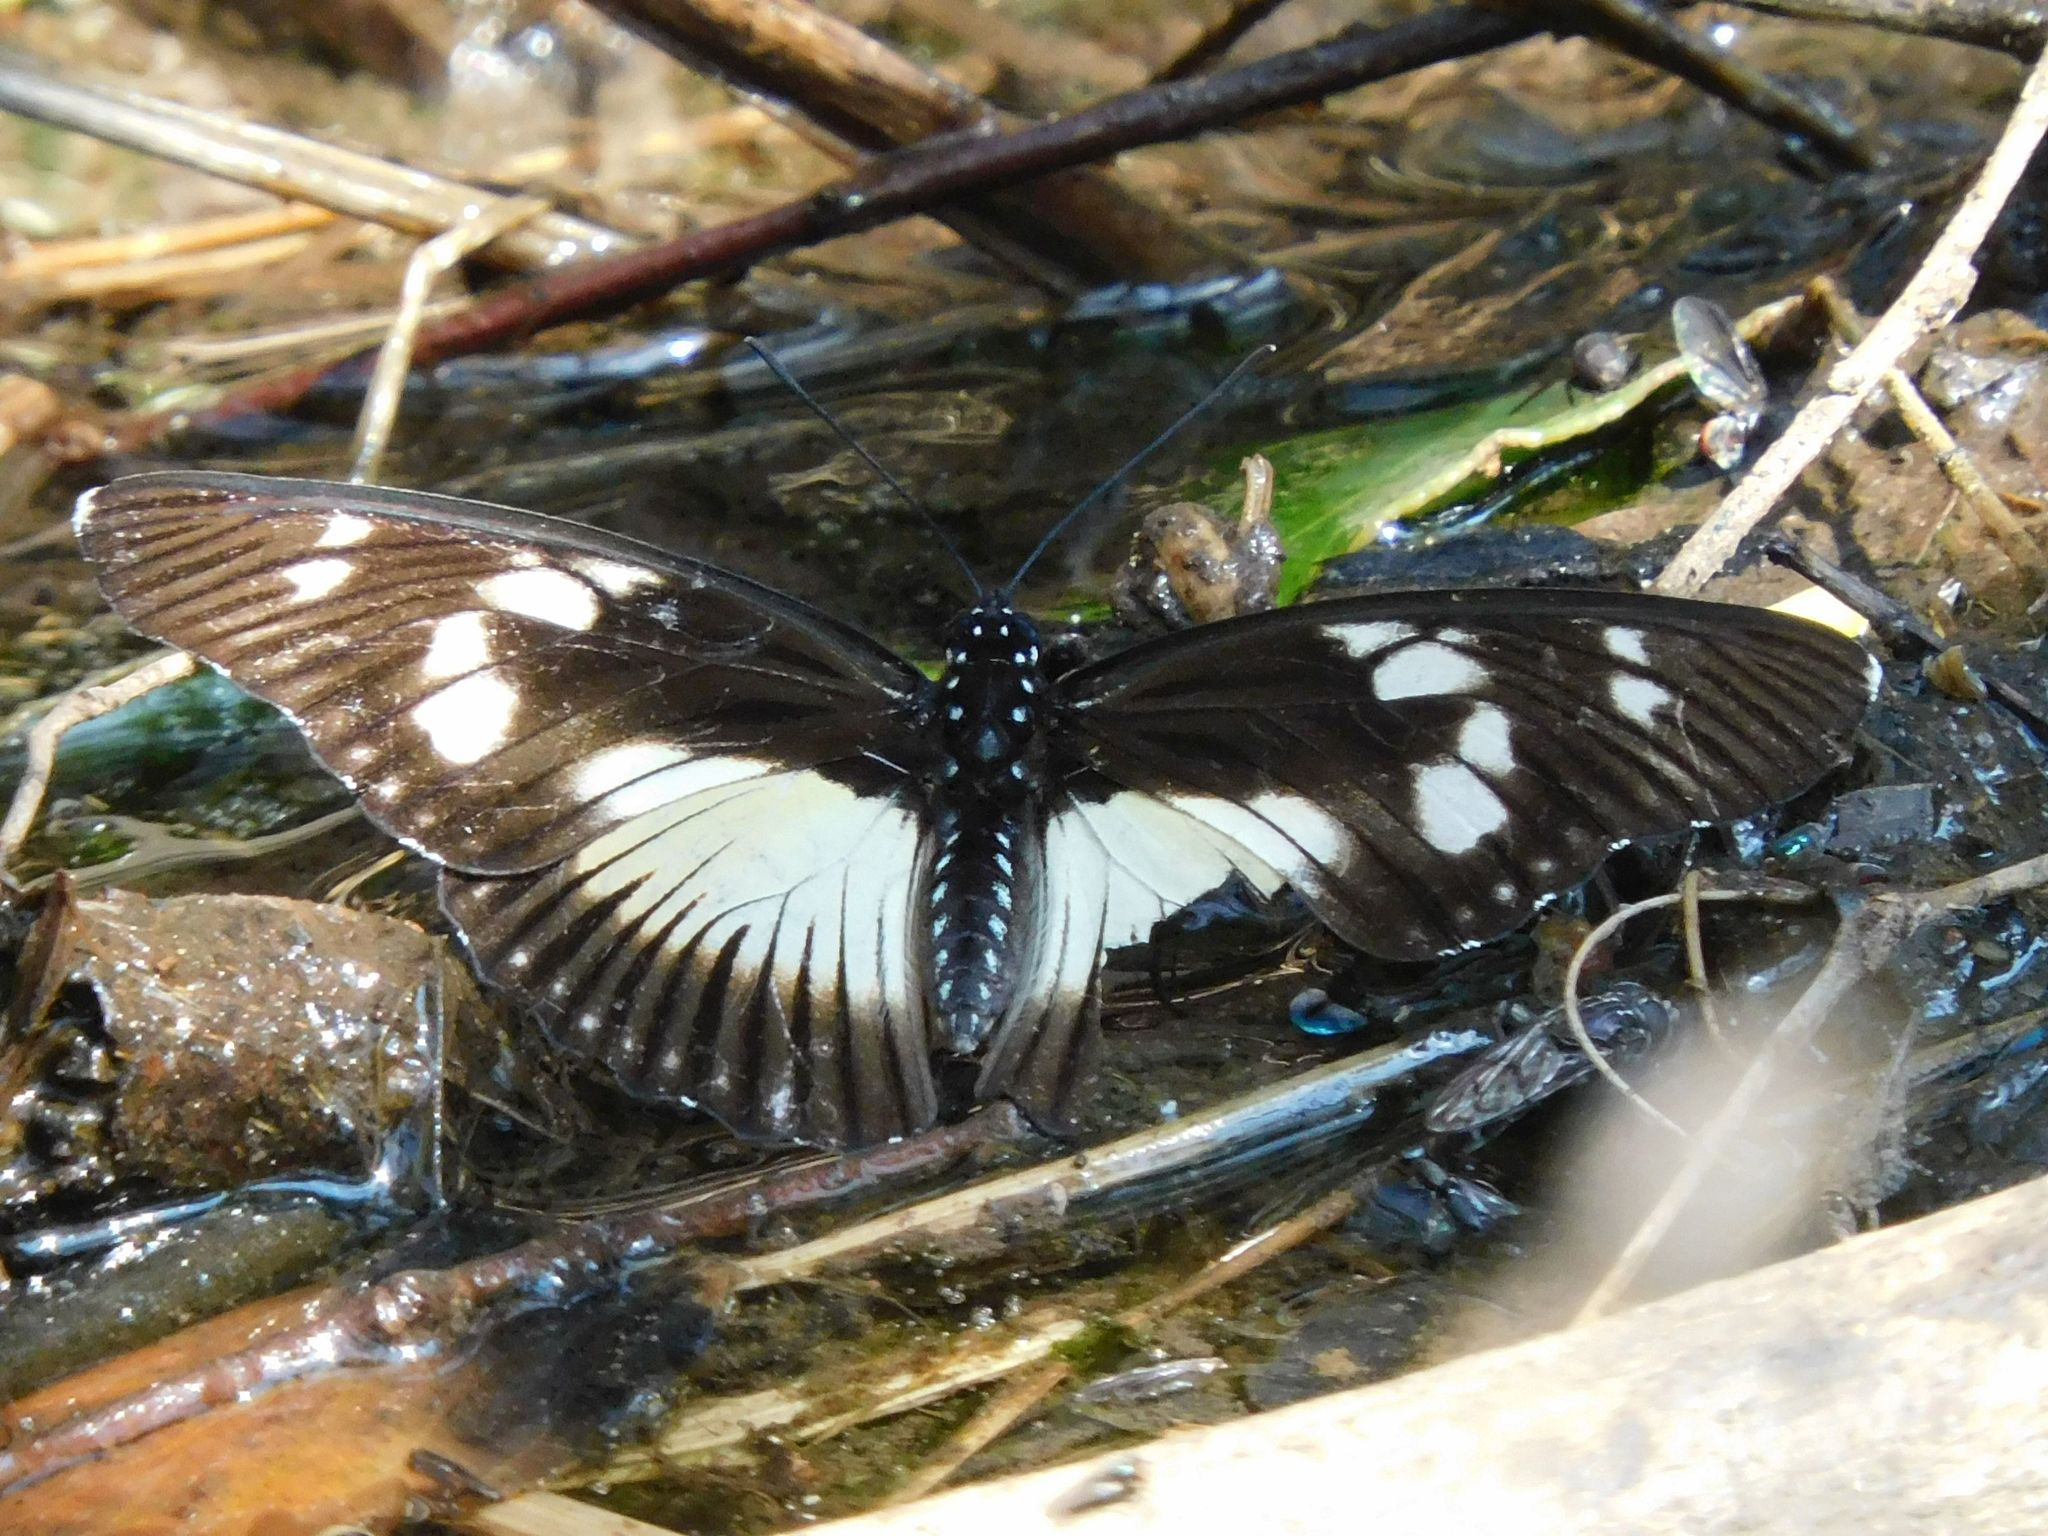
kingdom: Animalia
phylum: Arthropoda
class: Insecta
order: Lepidoptera
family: Nymphalidae
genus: Chloropoea
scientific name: Chloropoea lucretia
